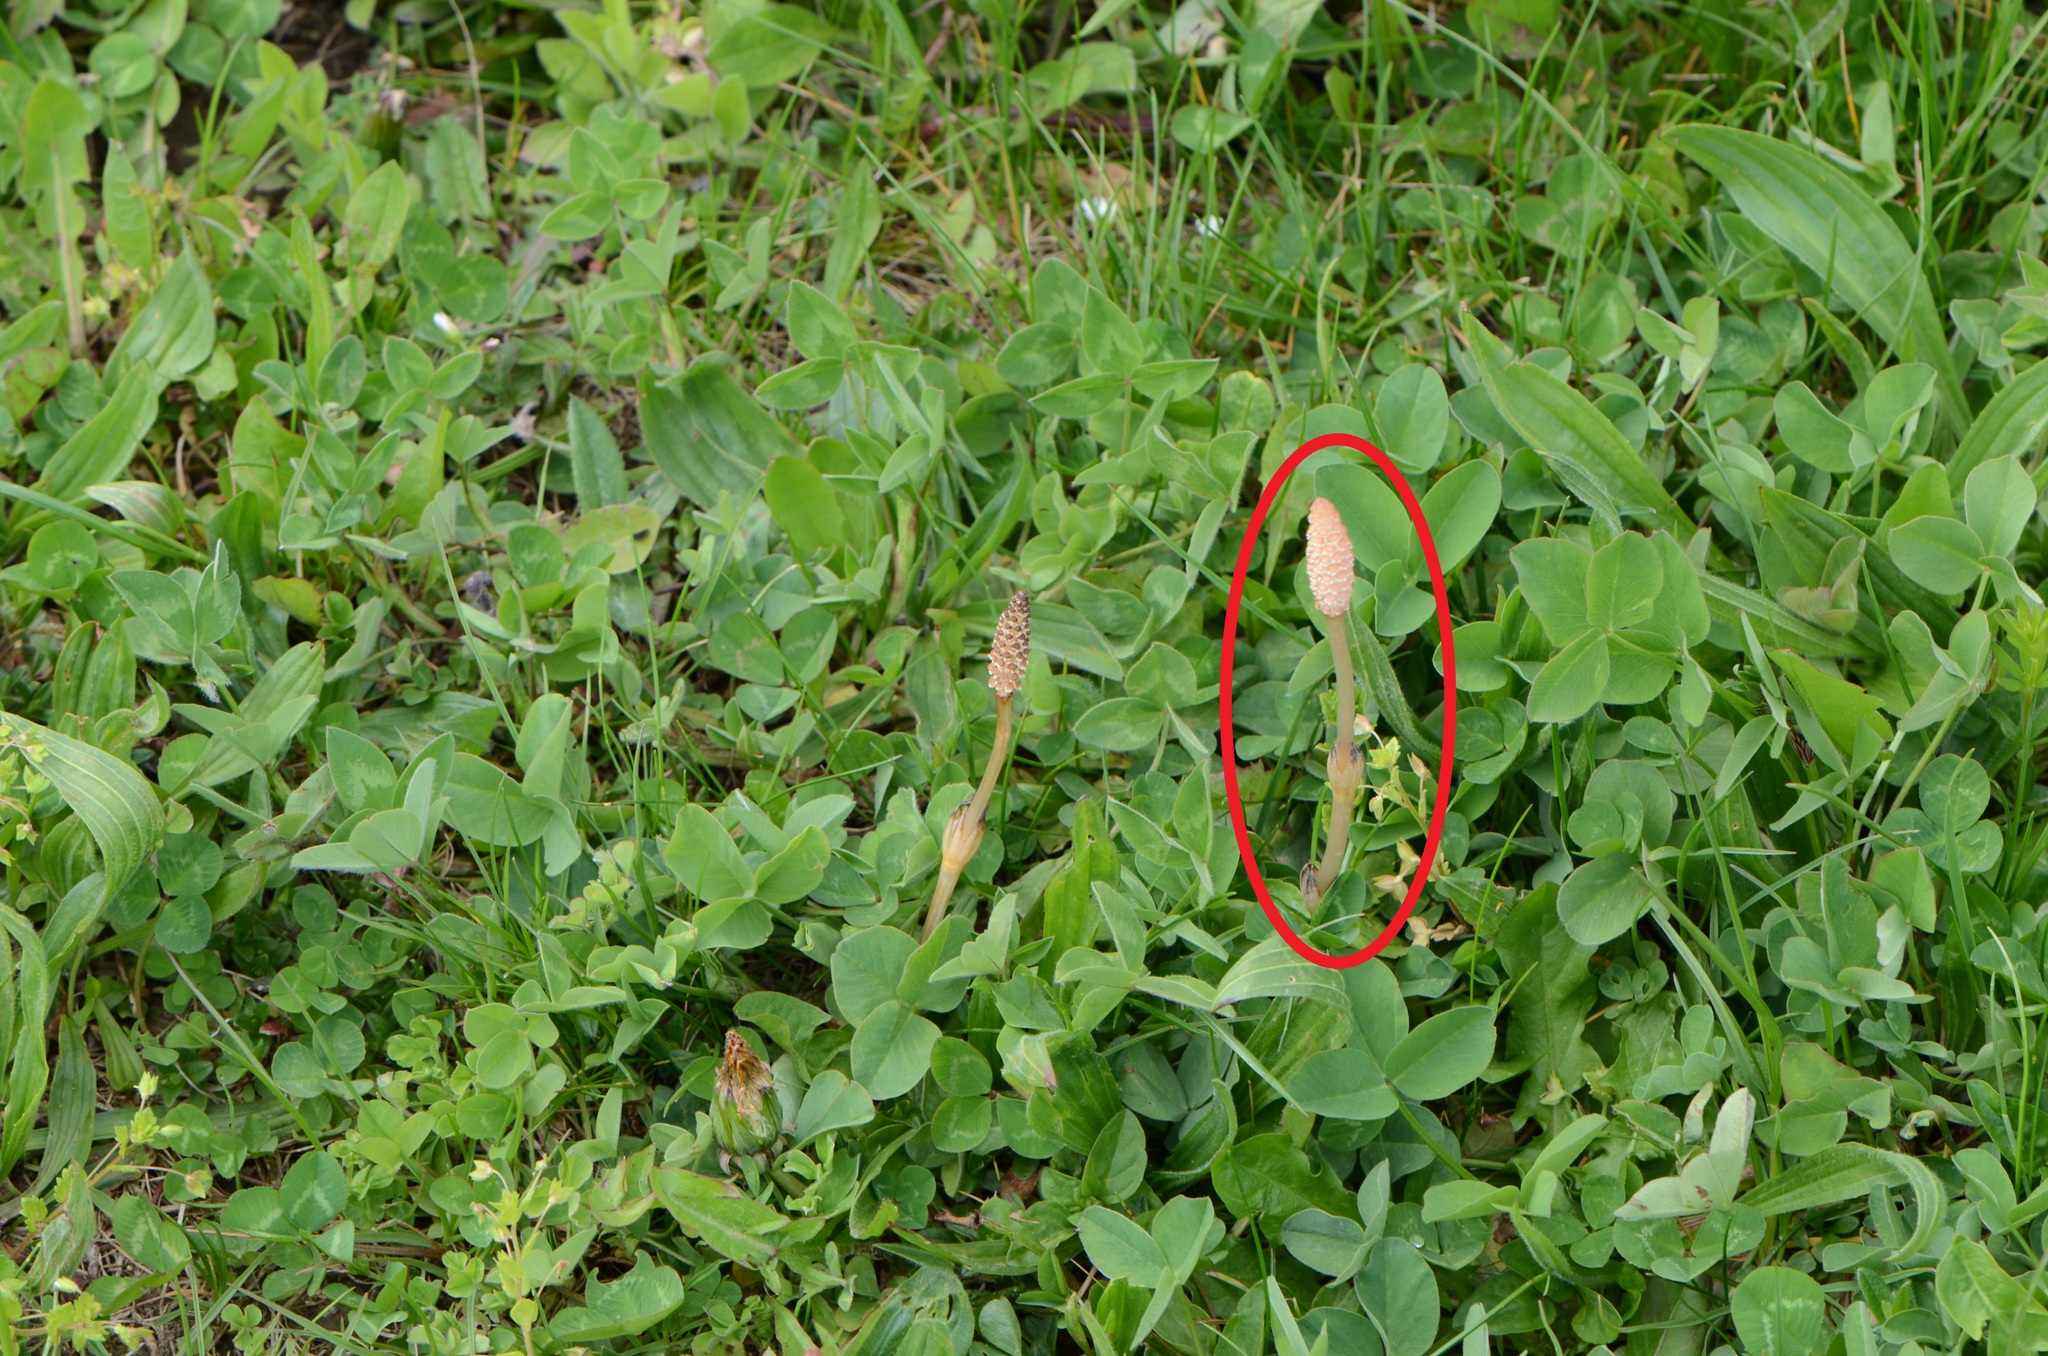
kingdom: Plantae
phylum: Tracheophyta
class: Polypodiopsida
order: Equisetales
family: Equisetaceae
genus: Equisetum
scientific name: Equisetum arvense
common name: Field horsetail
